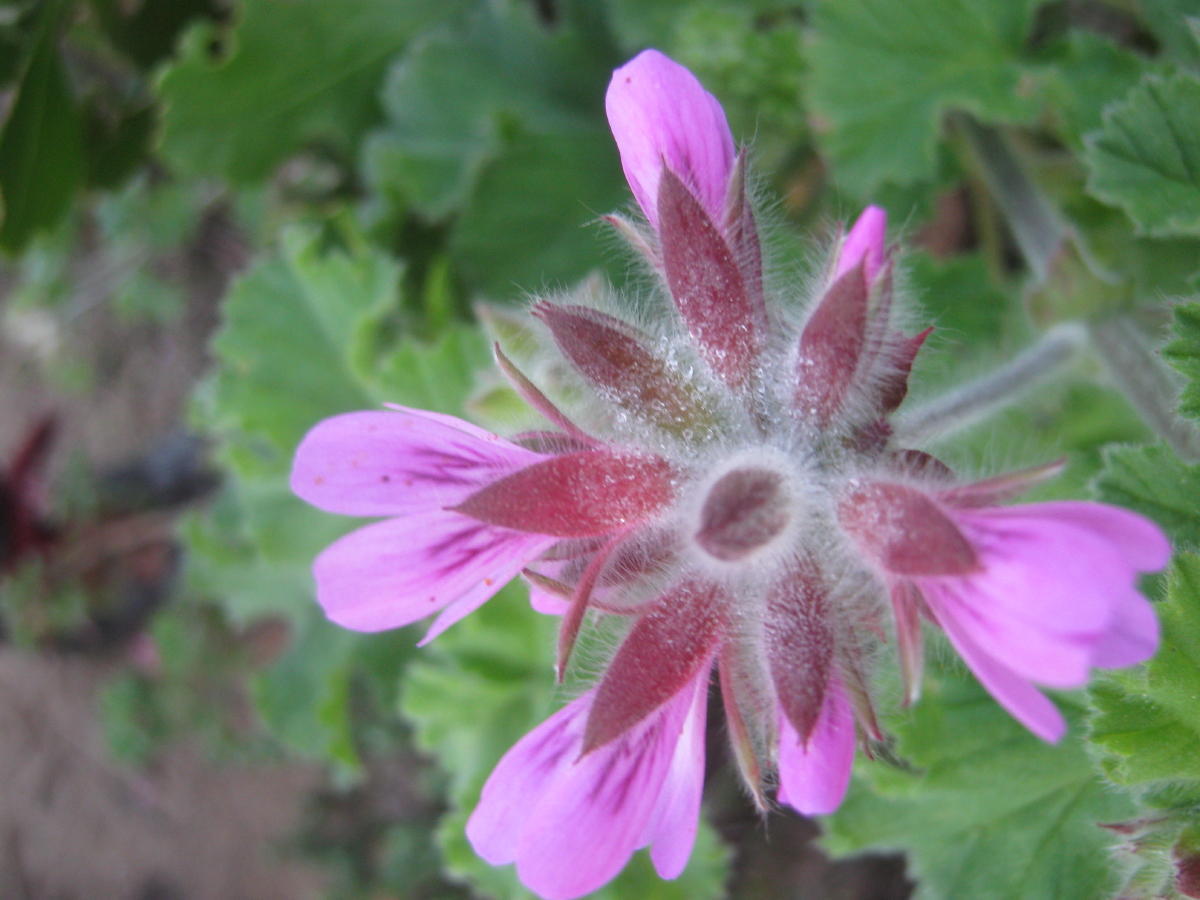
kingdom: Plantae
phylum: Tracheophyta
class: Magnoliopsida
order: Geraniales
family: Geraniaceae
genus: Pelargonium
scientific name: Pelargonium capitatum
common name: Rose scented geranium
